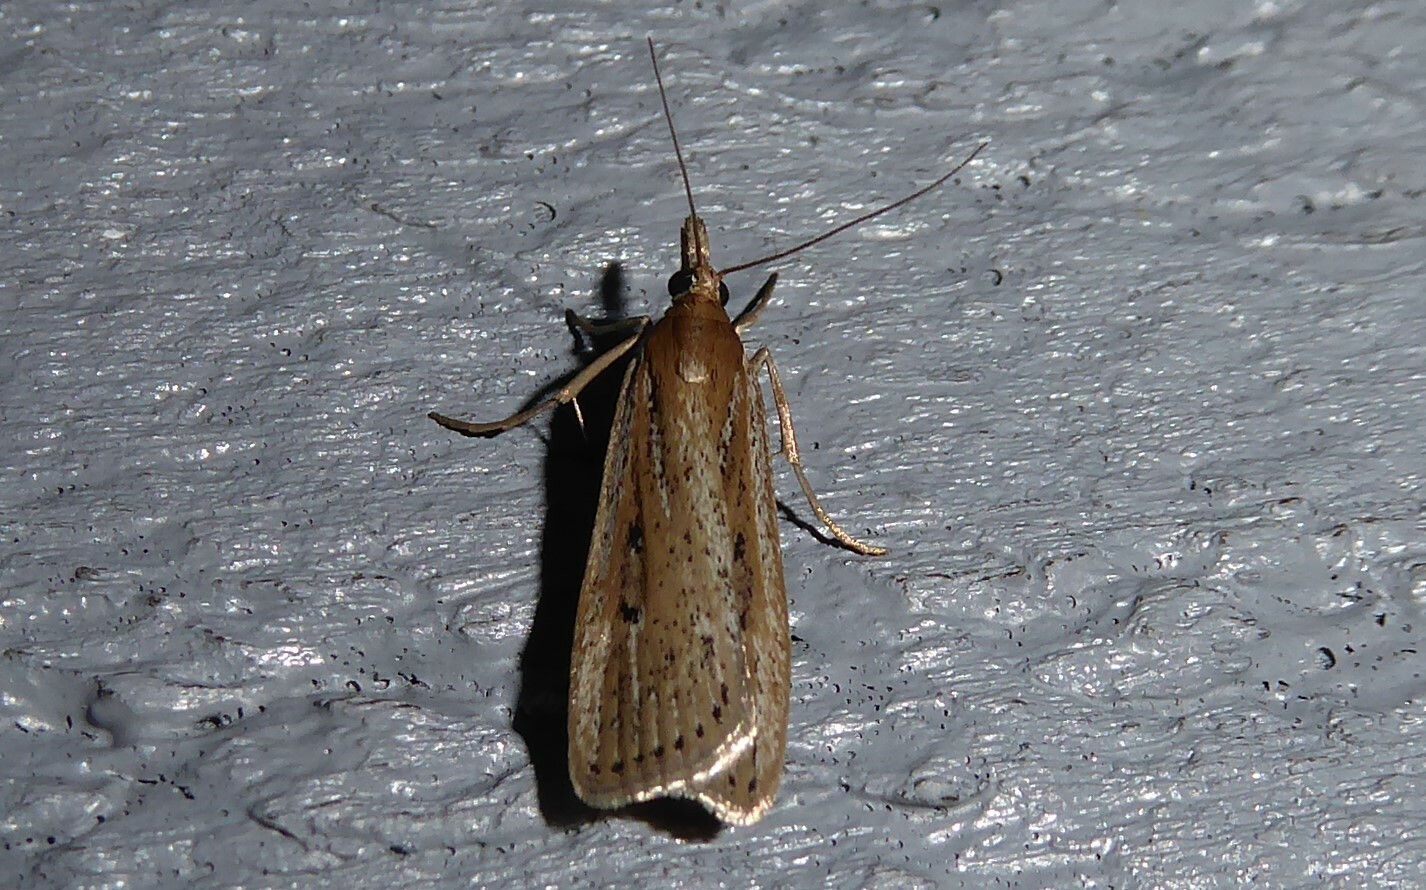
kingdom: Animalia
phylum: Arthropoda
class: Insecta
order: Lepidoptera
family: Crambidae
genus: Eudonia
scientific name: Eudonia sabulosella
